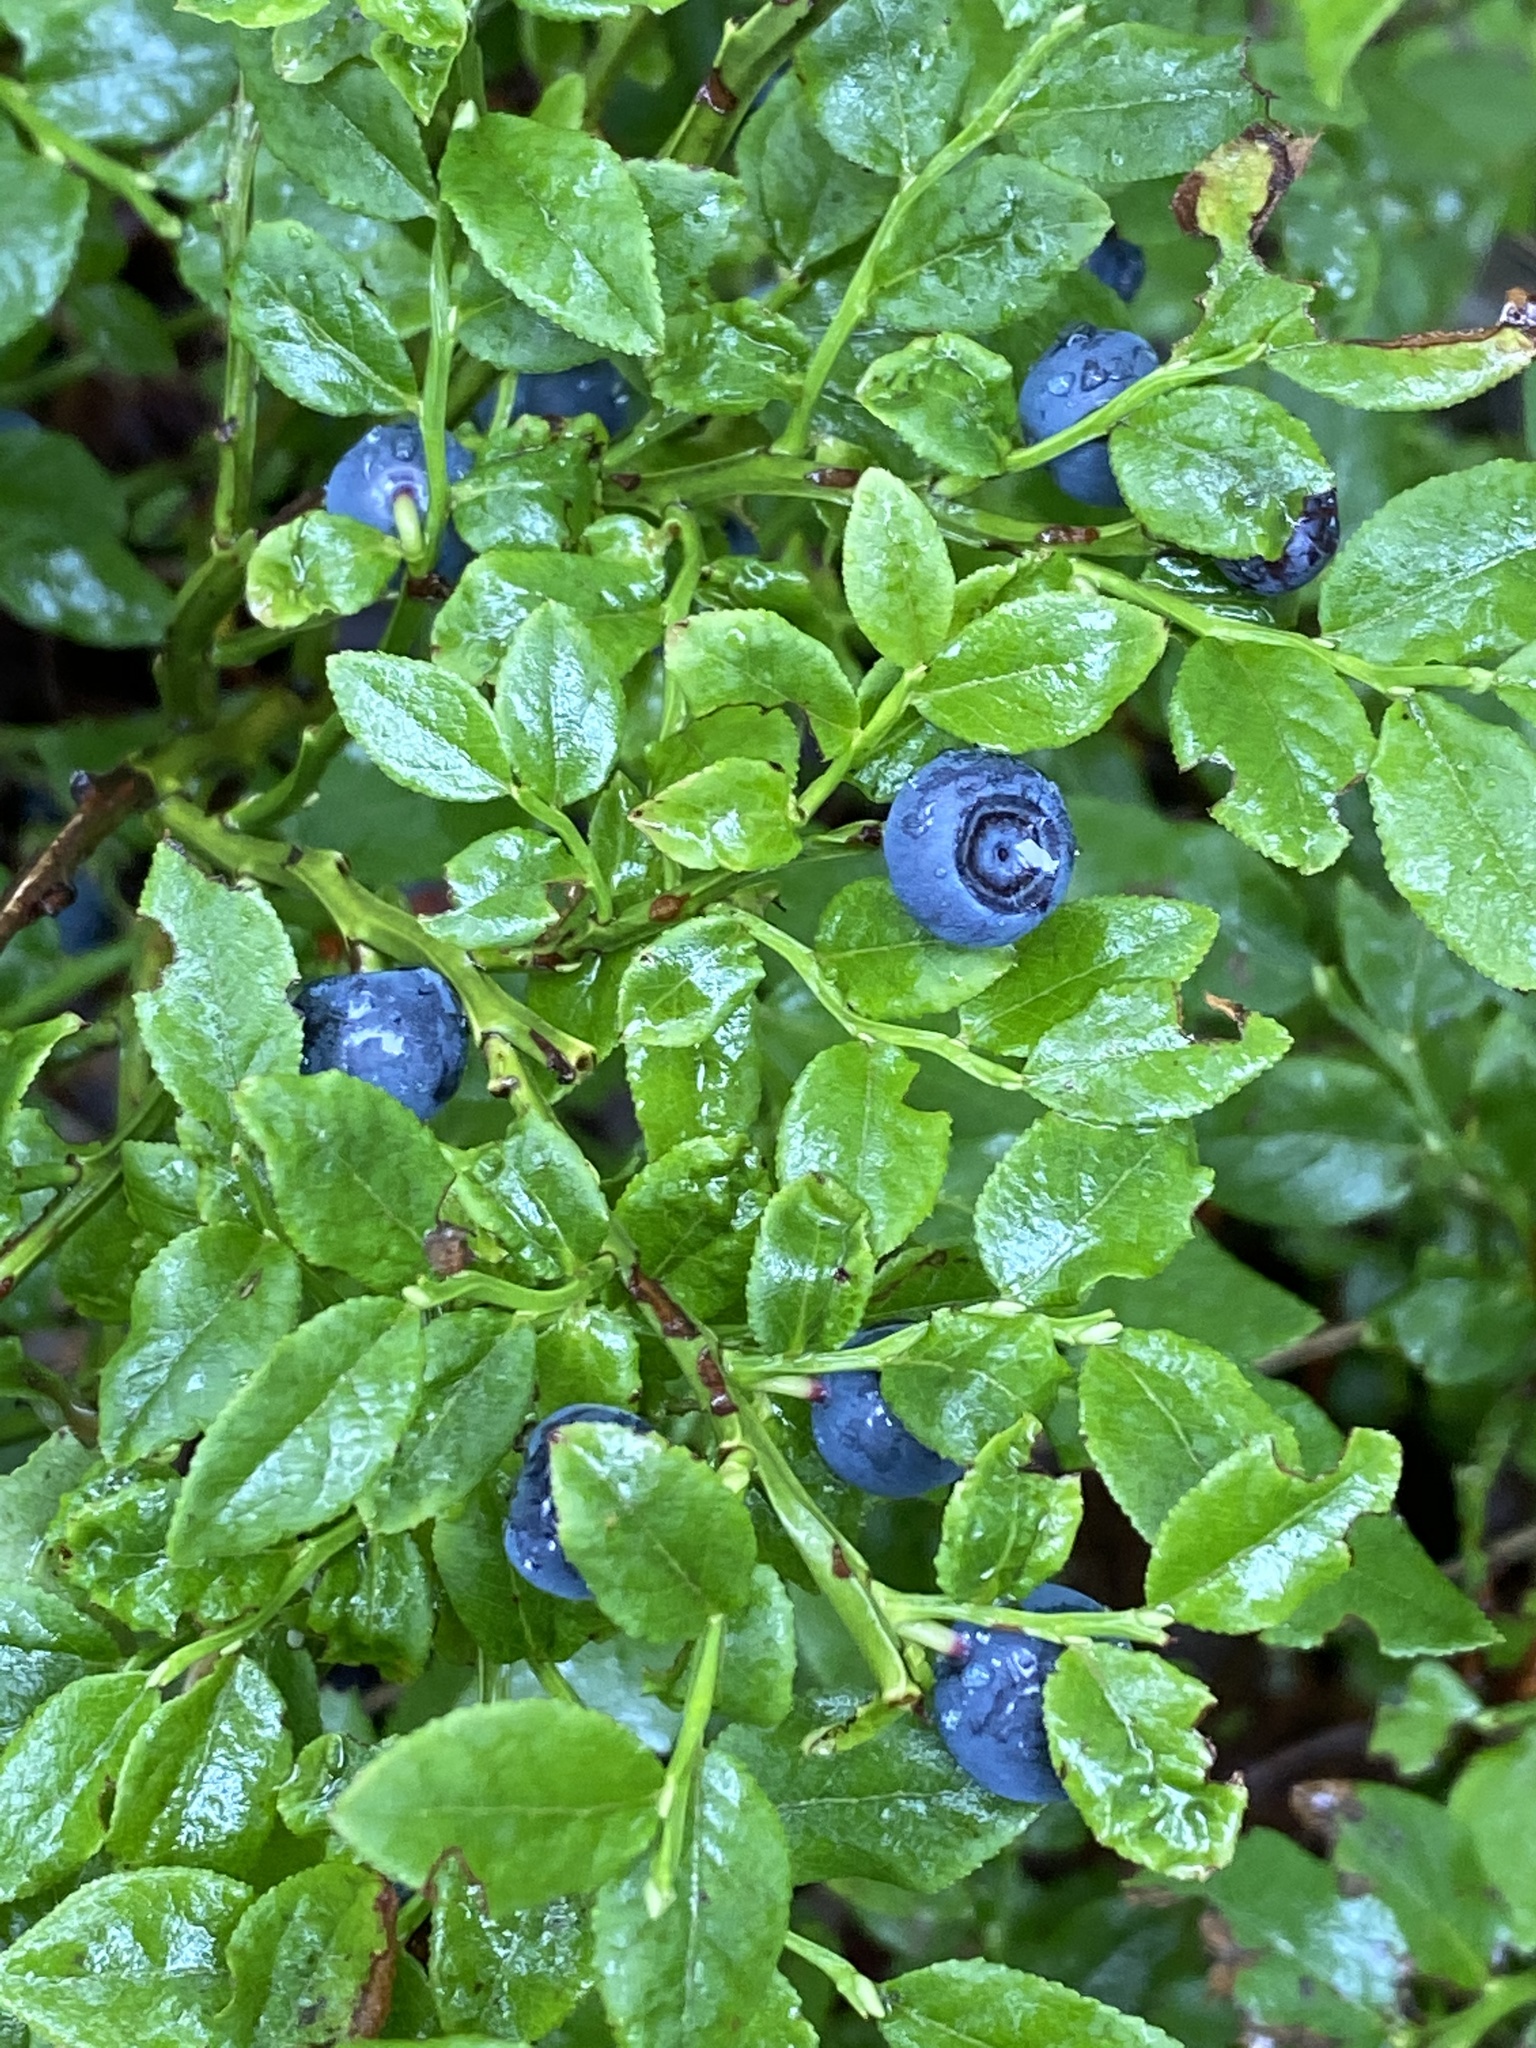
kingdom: Plantae
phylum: Tracheophyta
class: Magnoliopsida
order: Ericales
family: Ericaceae
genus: Vaccinium
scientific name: Vaccinium myrtillus
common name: Bilberry
